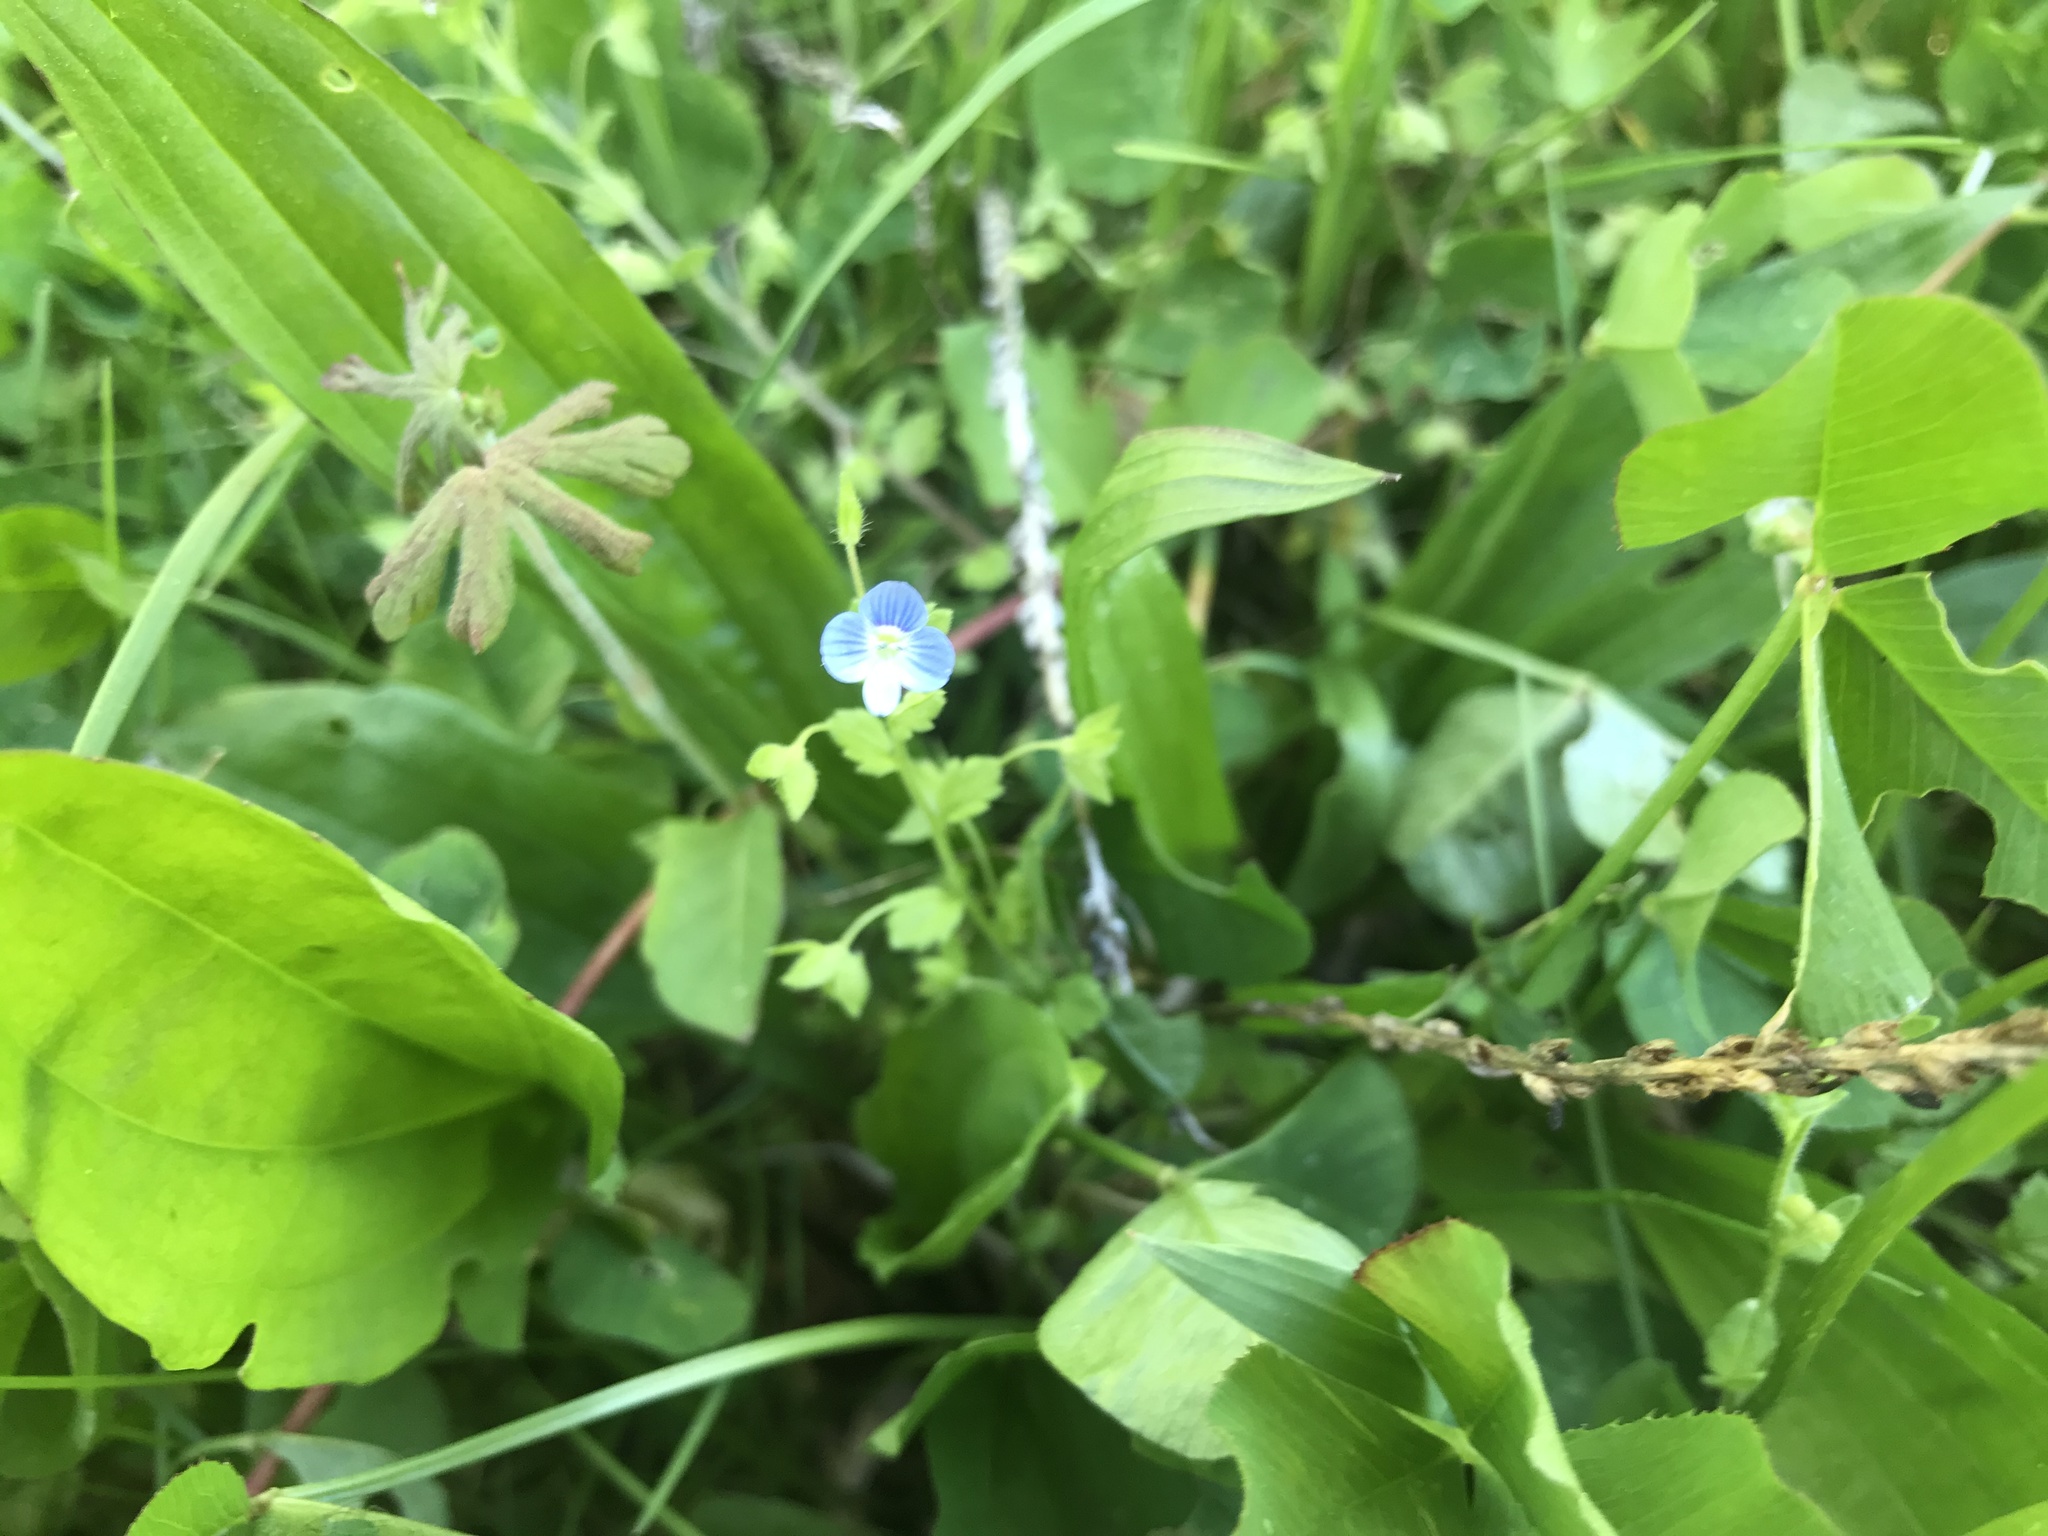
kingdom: Plantae
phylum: Tracheophyta
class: Magnoliopsida
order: Lamiales
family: Plantaginaceae
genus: Veronica
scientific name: Veronica persica
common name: Common field-speedwell
